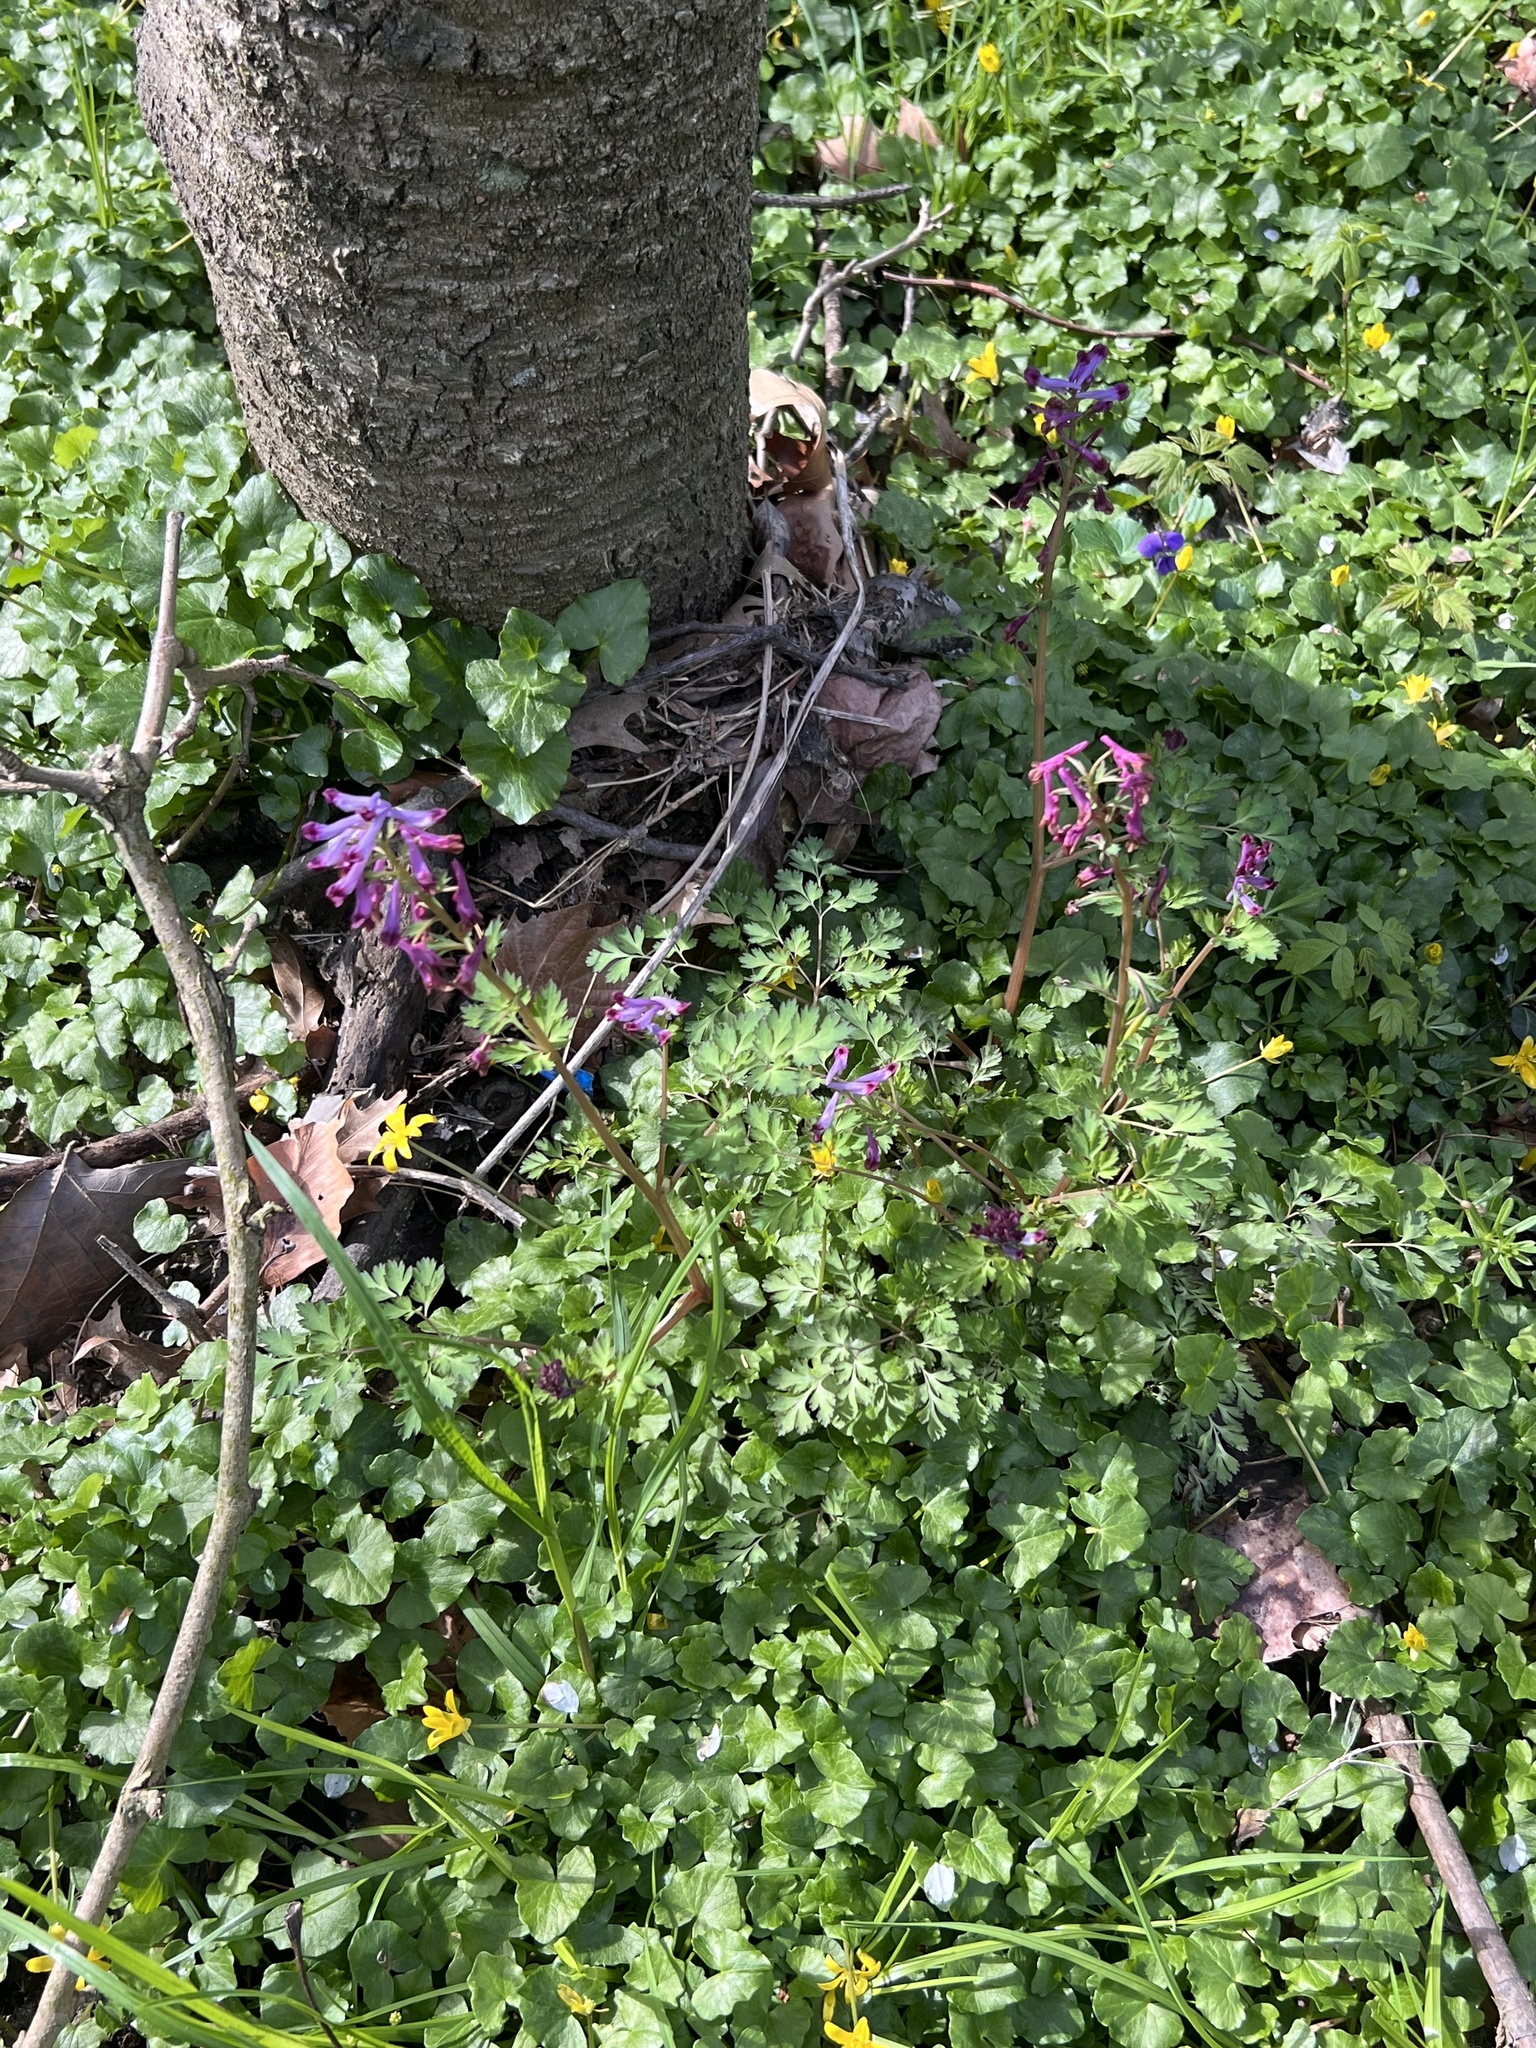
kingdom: Plantae
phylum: Tracheophyta
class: Magnoliopsida
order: Ranunculales
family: Papaveraceae
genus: Corydalis
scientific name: Corydalis incisa
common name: Incised fumewort
